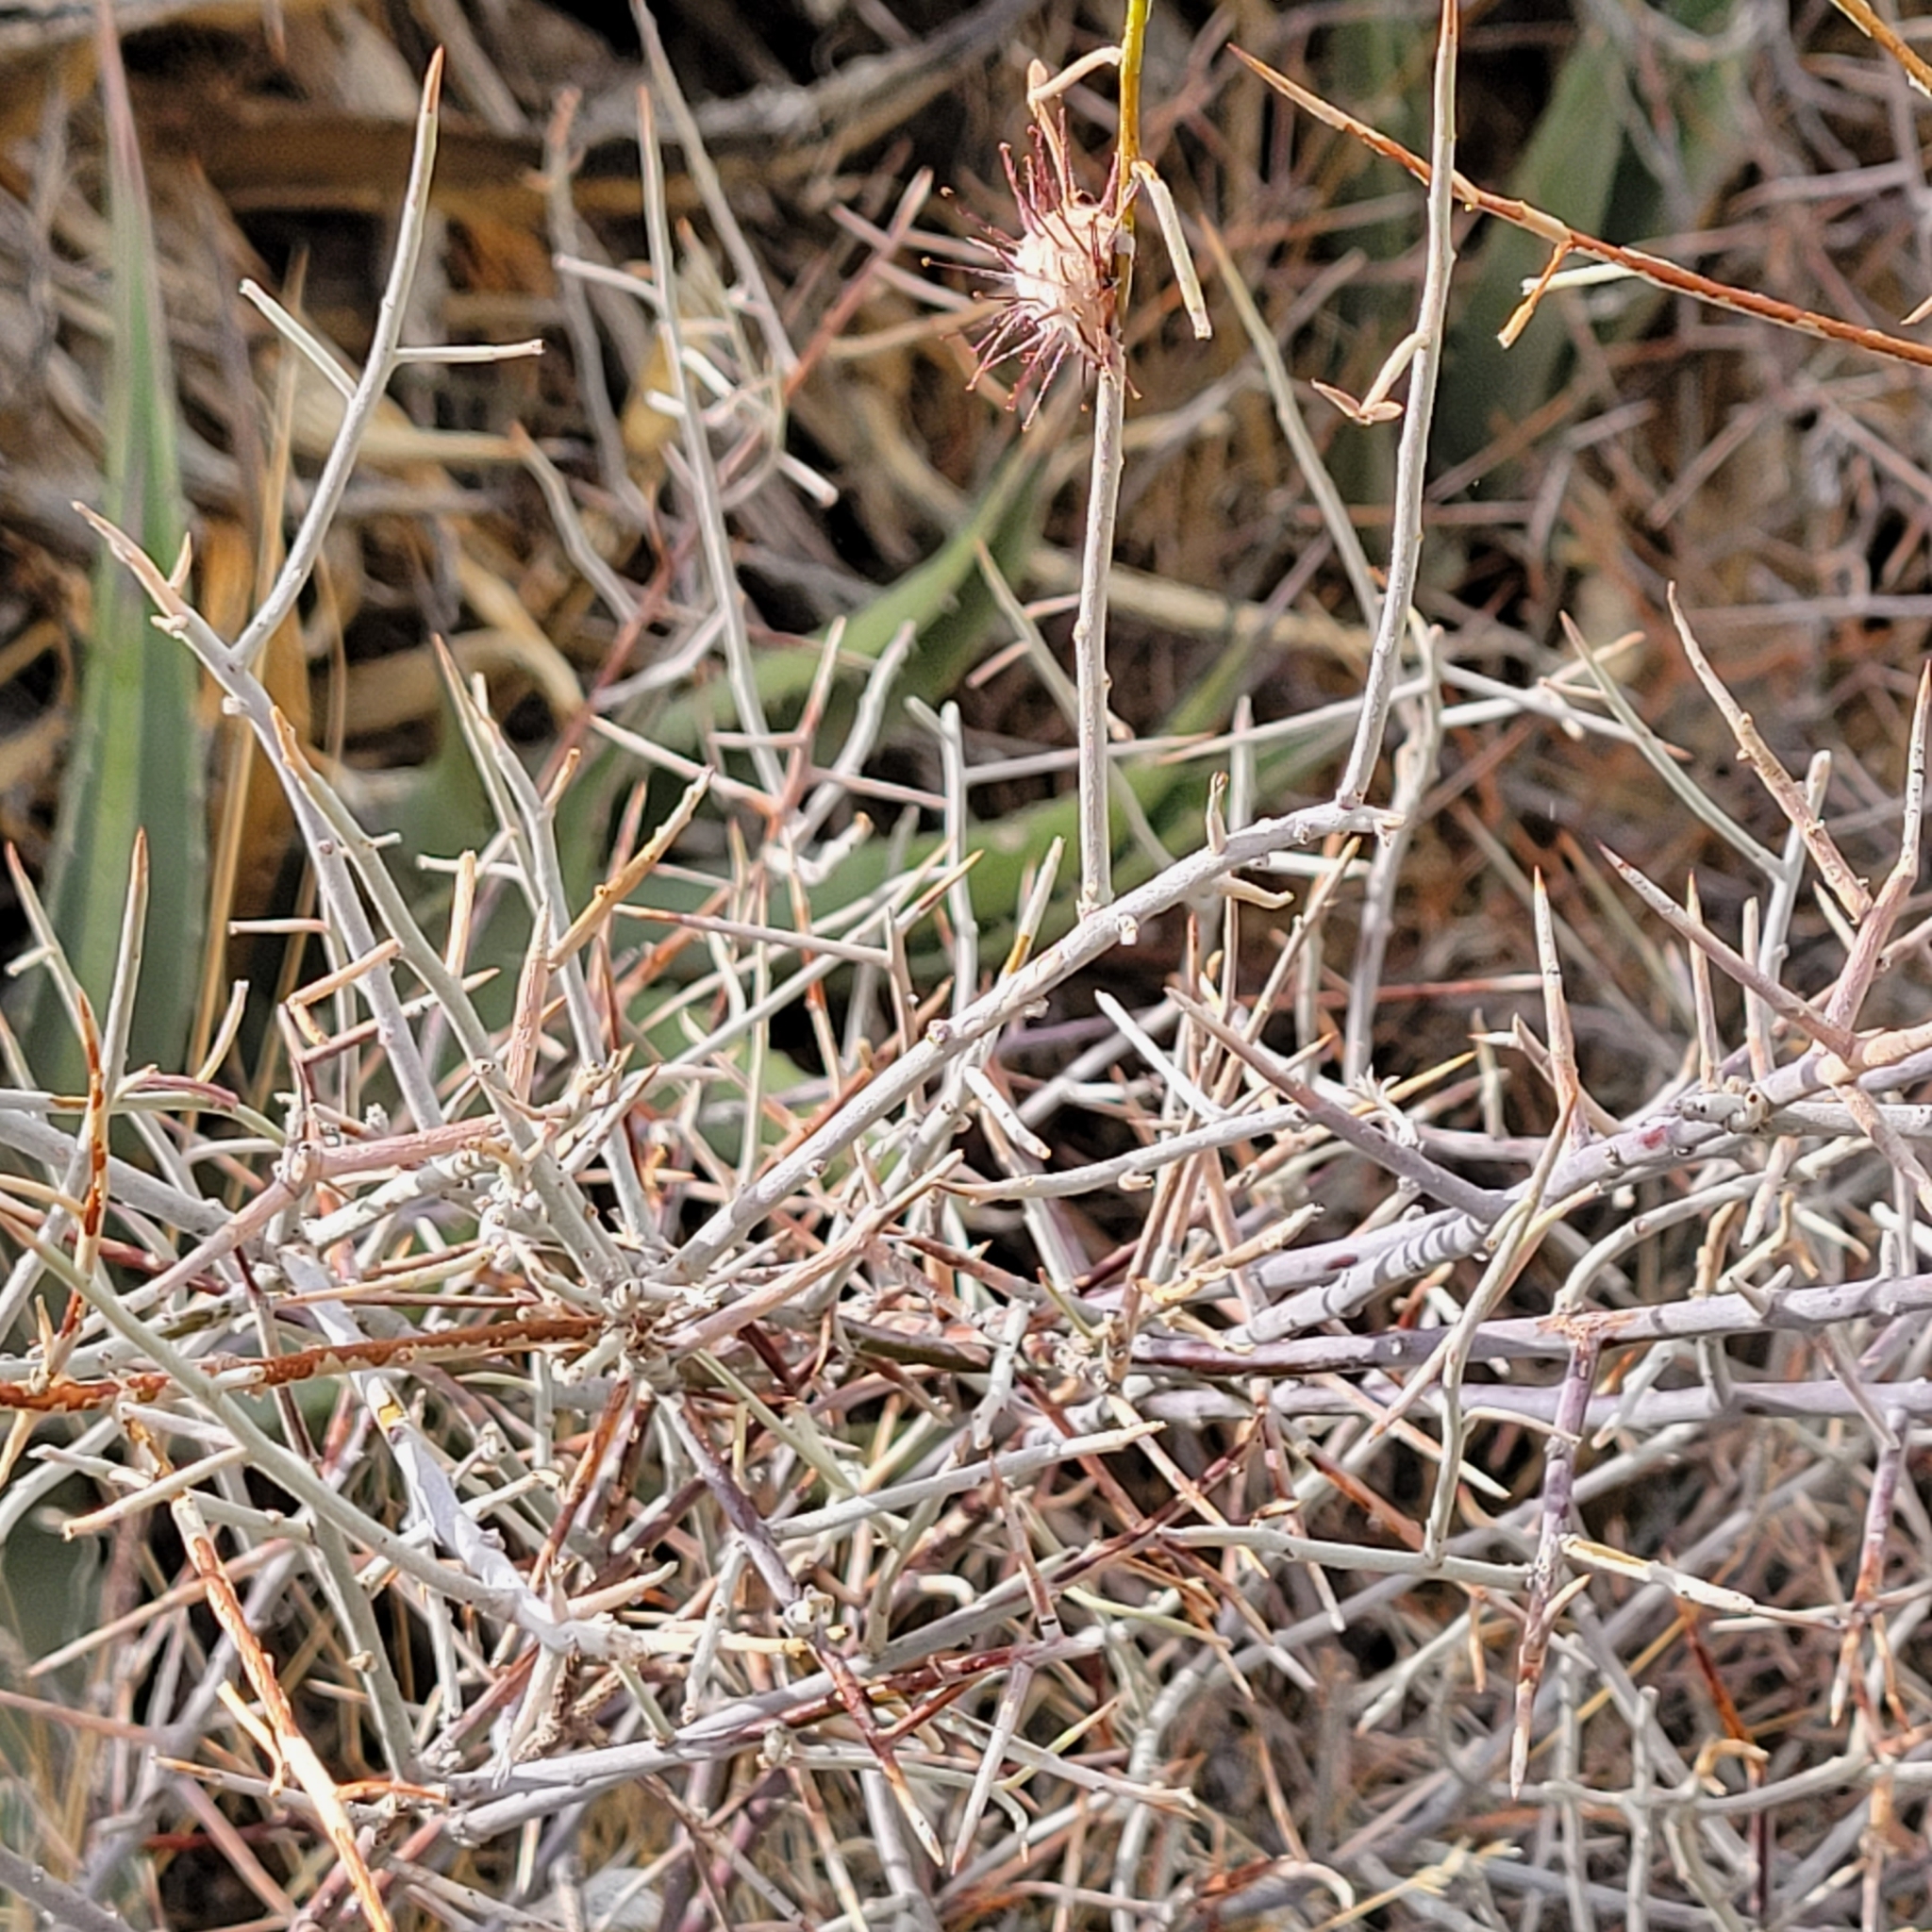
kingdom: Plantae
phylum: Tracheophyta
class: Magnoliopsida
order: Zygophyllales
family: Krameriaceae
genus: Krameria
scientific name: Krameria bicolor
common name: White ratany
